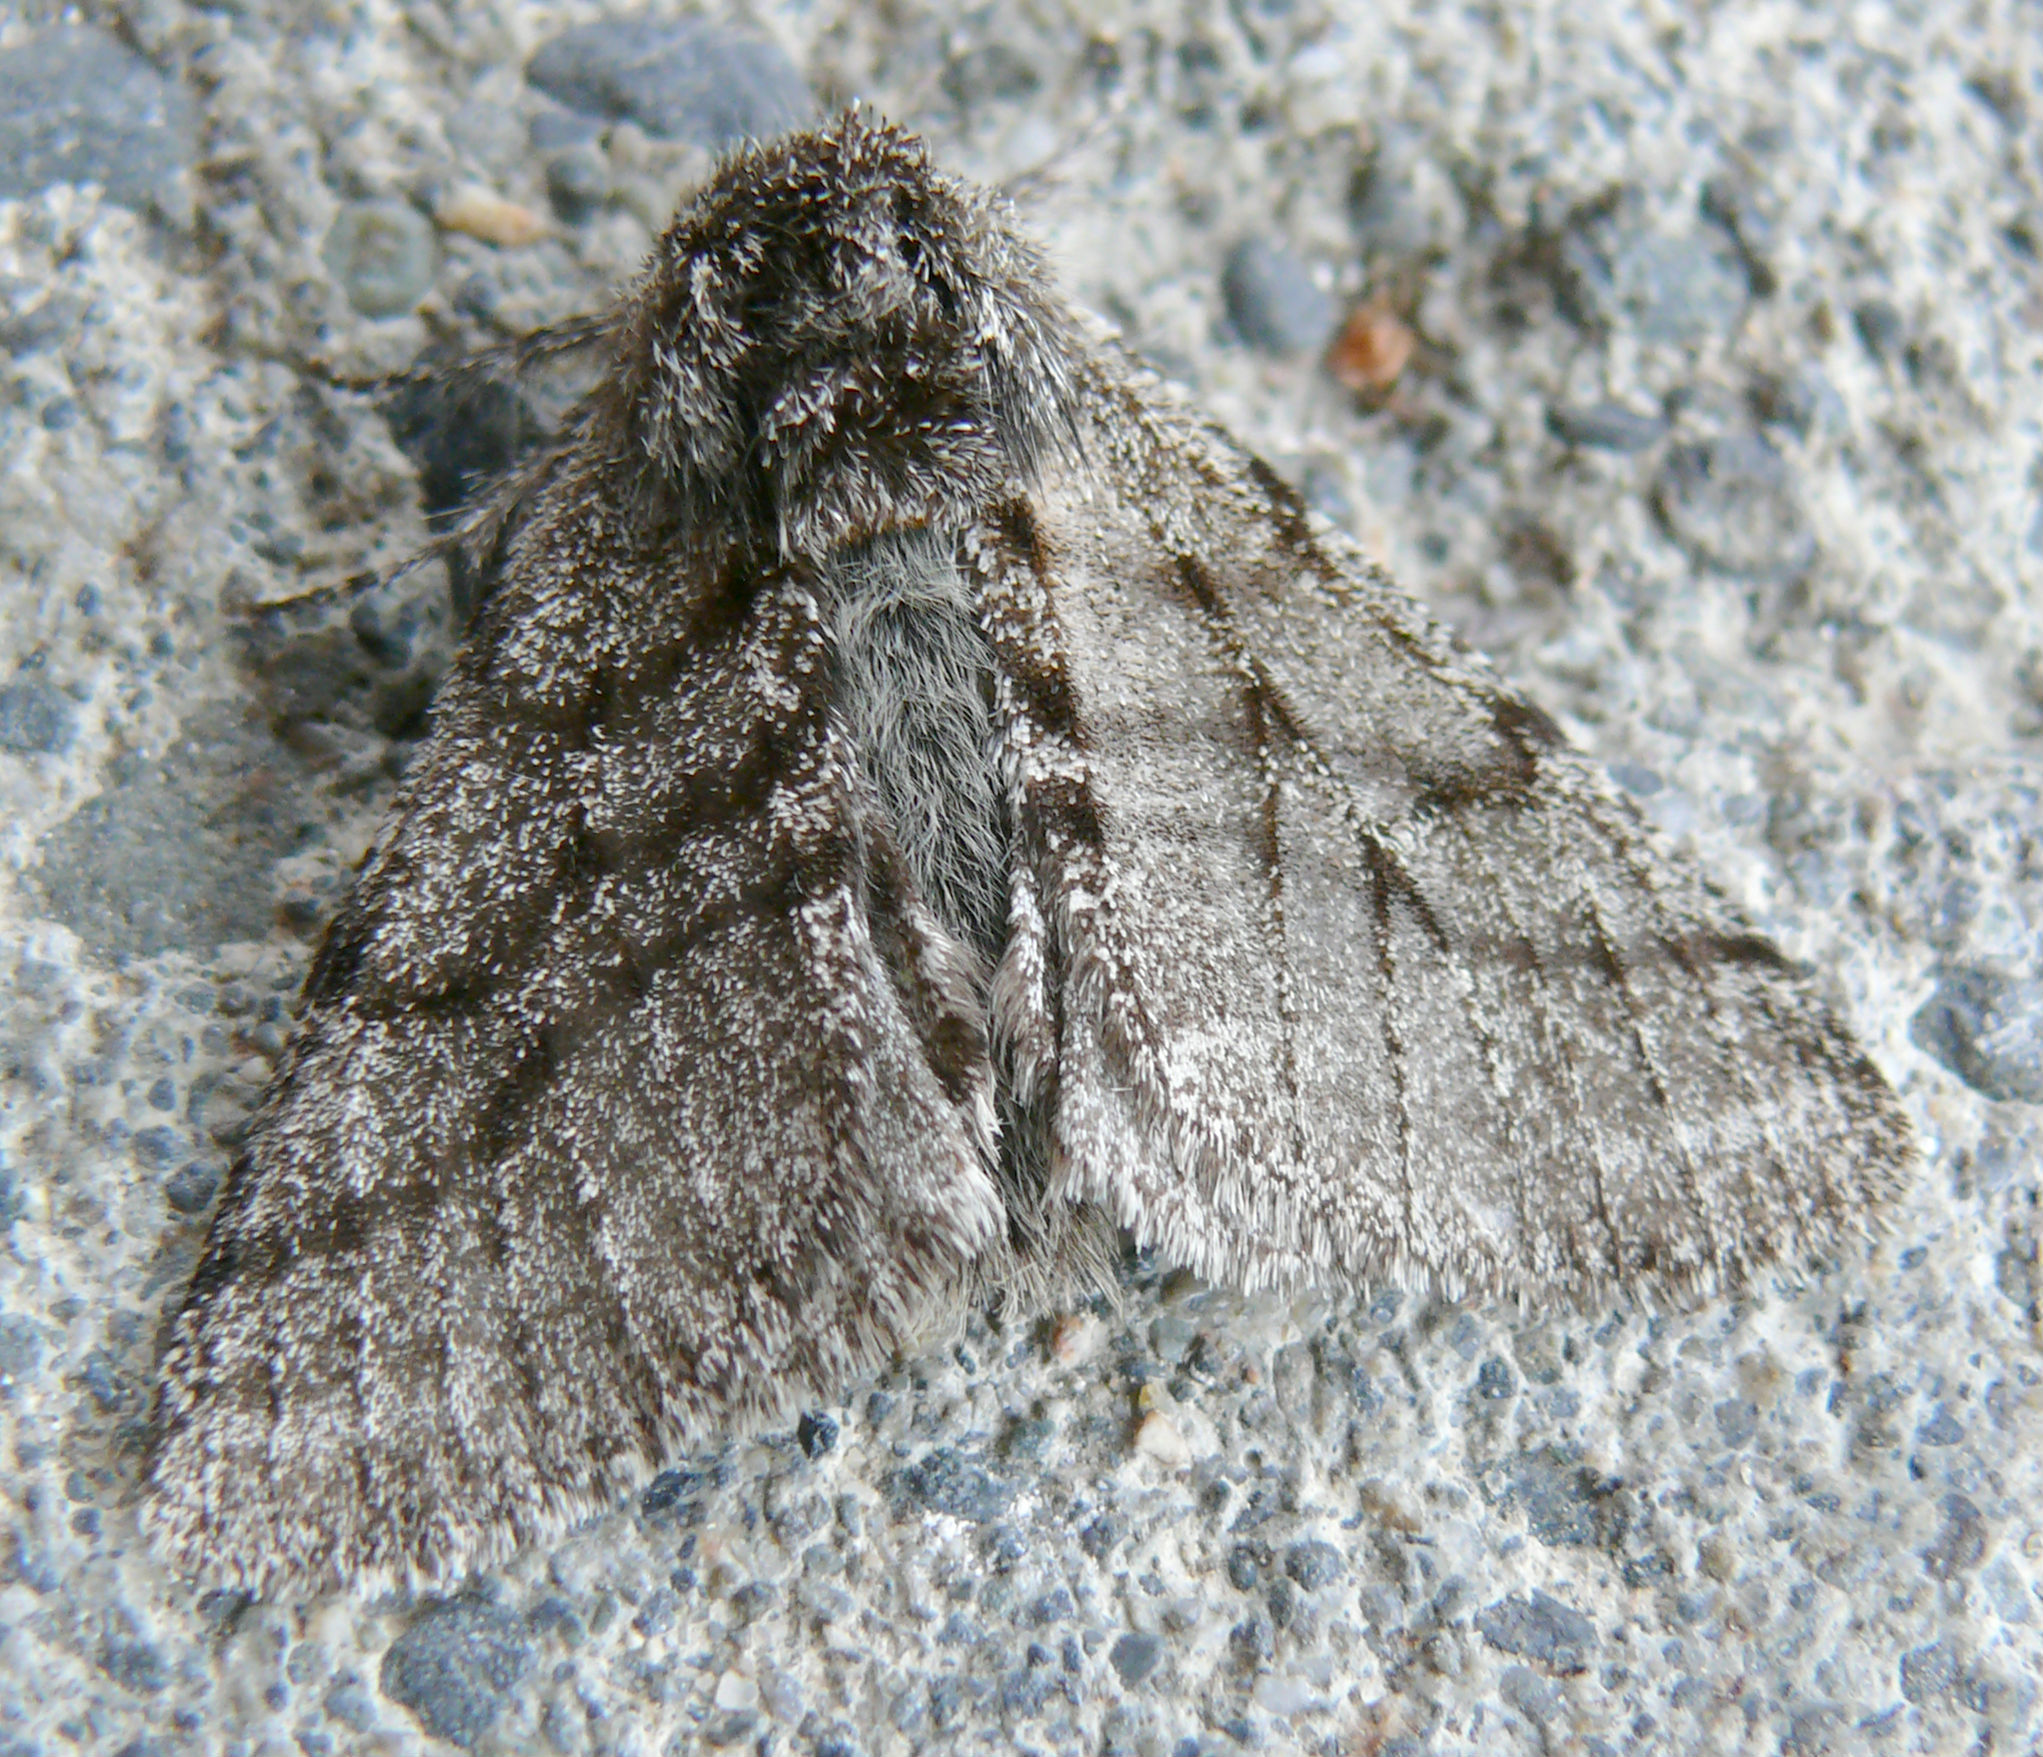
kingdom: Animalia
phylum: Arthropoda
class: Insecta
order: Lepidoptera
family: Geometridae
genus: Lycia
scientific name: Lycia ursaria
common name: Stout spanworm
